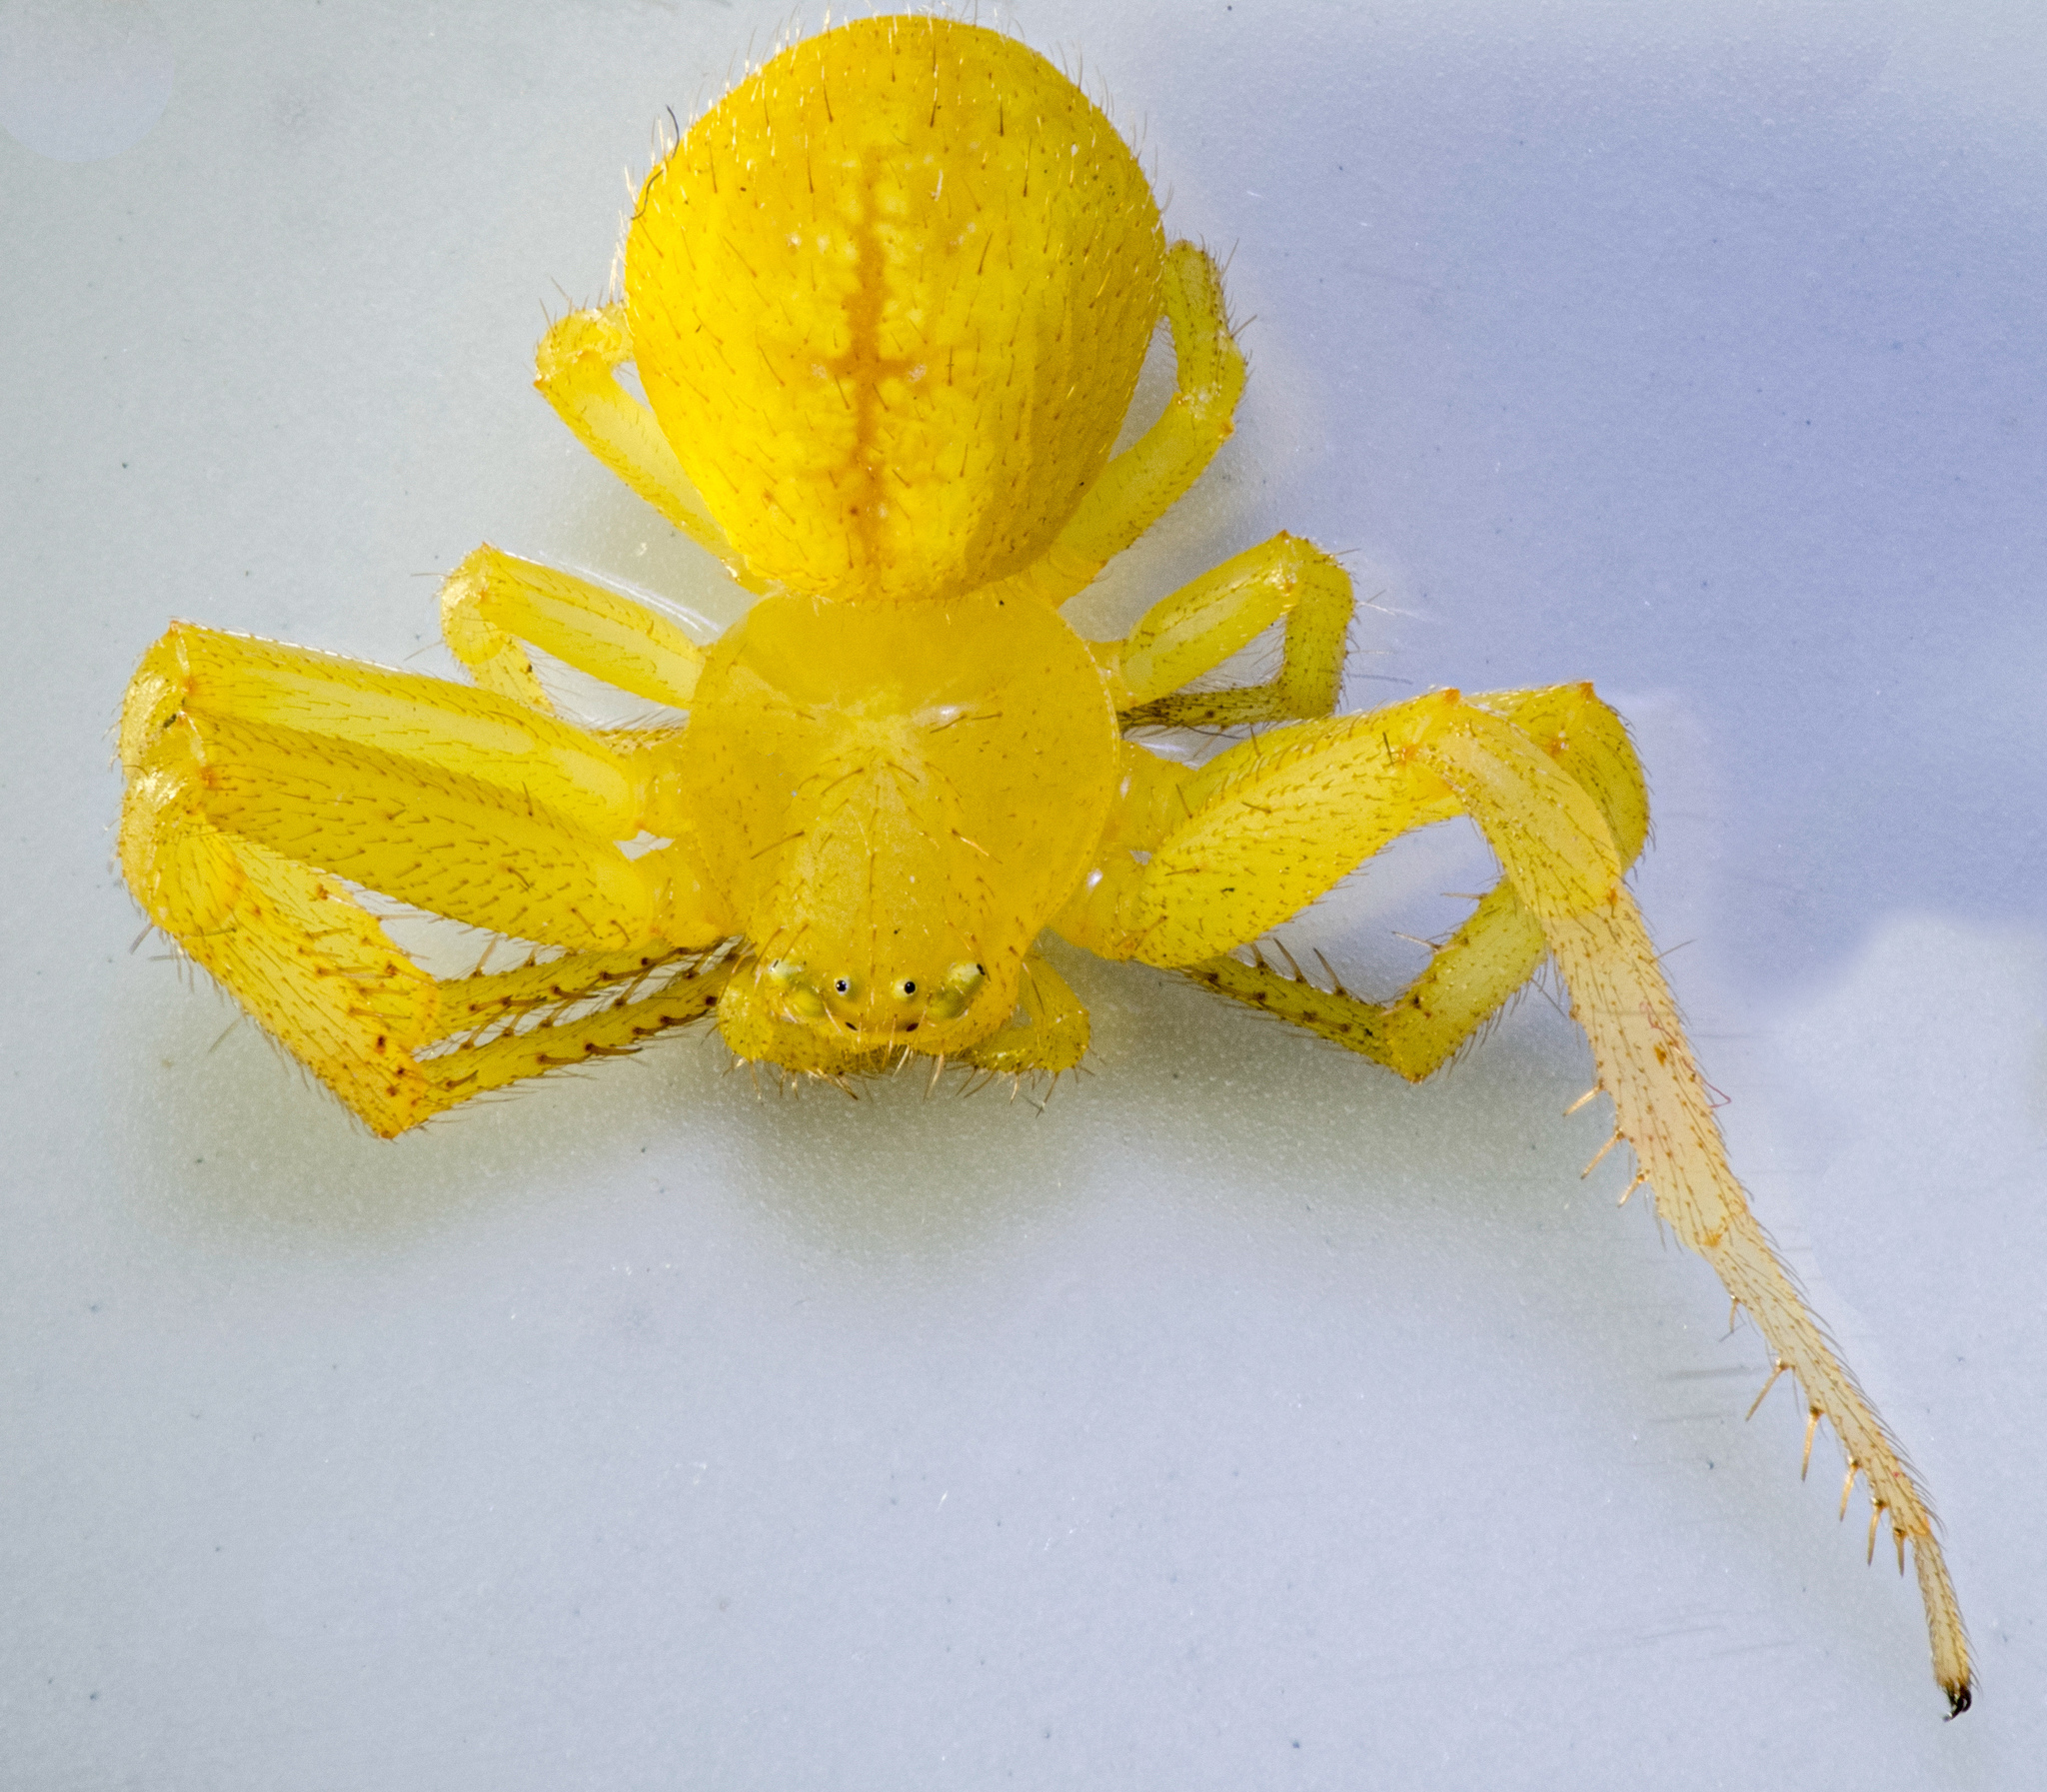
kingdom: Animalia
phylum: Arthropoda
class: Arachnida
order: Araneae
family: Thomisidae
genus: Misumena
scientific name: Misumena vatia
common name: Goldenrod crab spider
